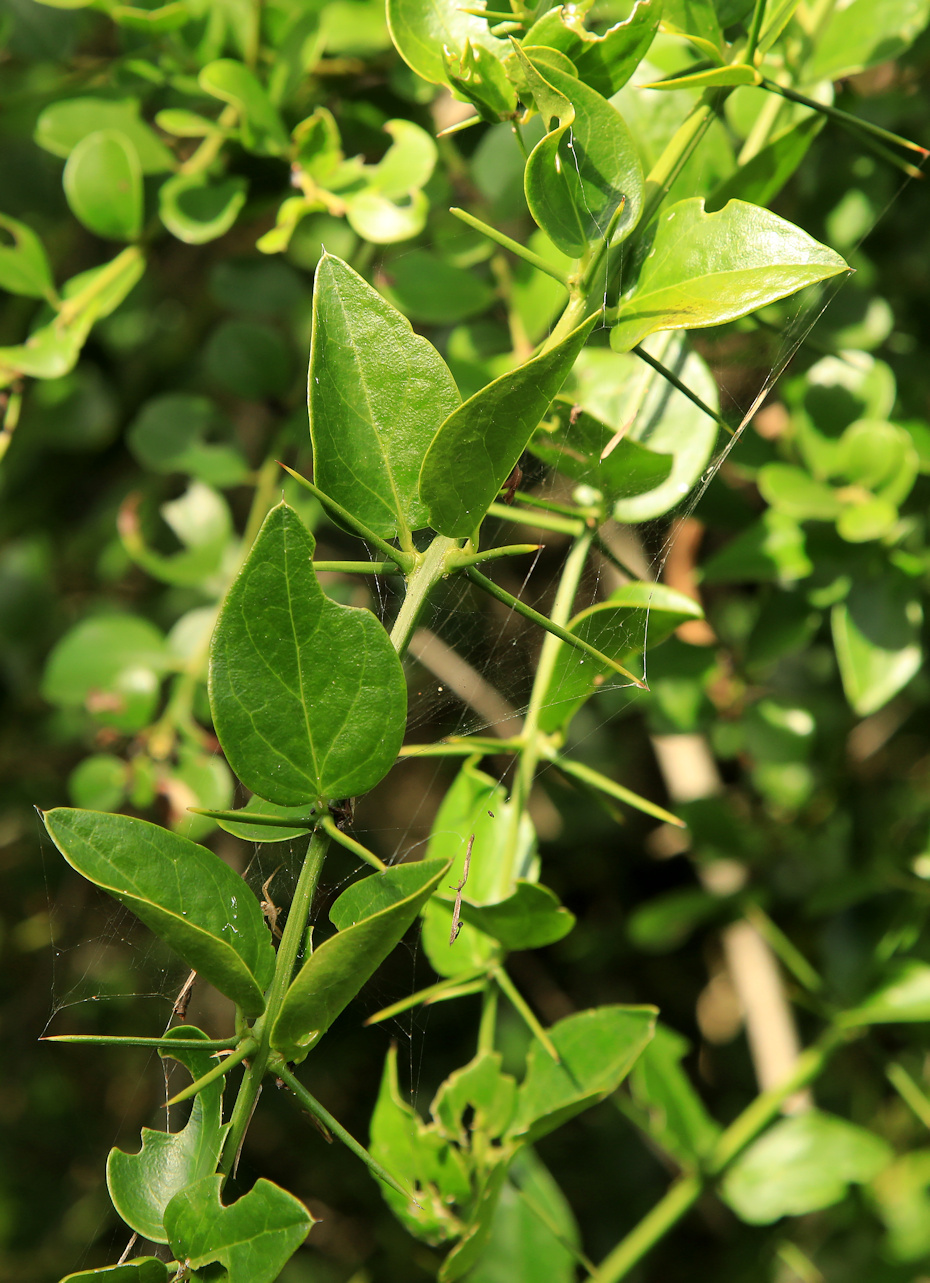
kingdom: Plantae
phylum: Tracheophyta
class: Magnoliopsida
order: Brassicales
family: Salvadoraceae
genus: Azima
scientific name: Azima tetracantha
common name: Needle bush
